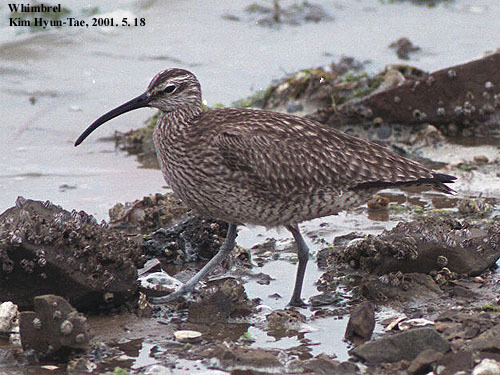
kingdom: Animalia
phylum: Chordata
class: Aves
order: Charadriiformes
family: Scolopacidae
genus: Numenius
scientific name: Numenius phaeopus
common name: Whimbrel
